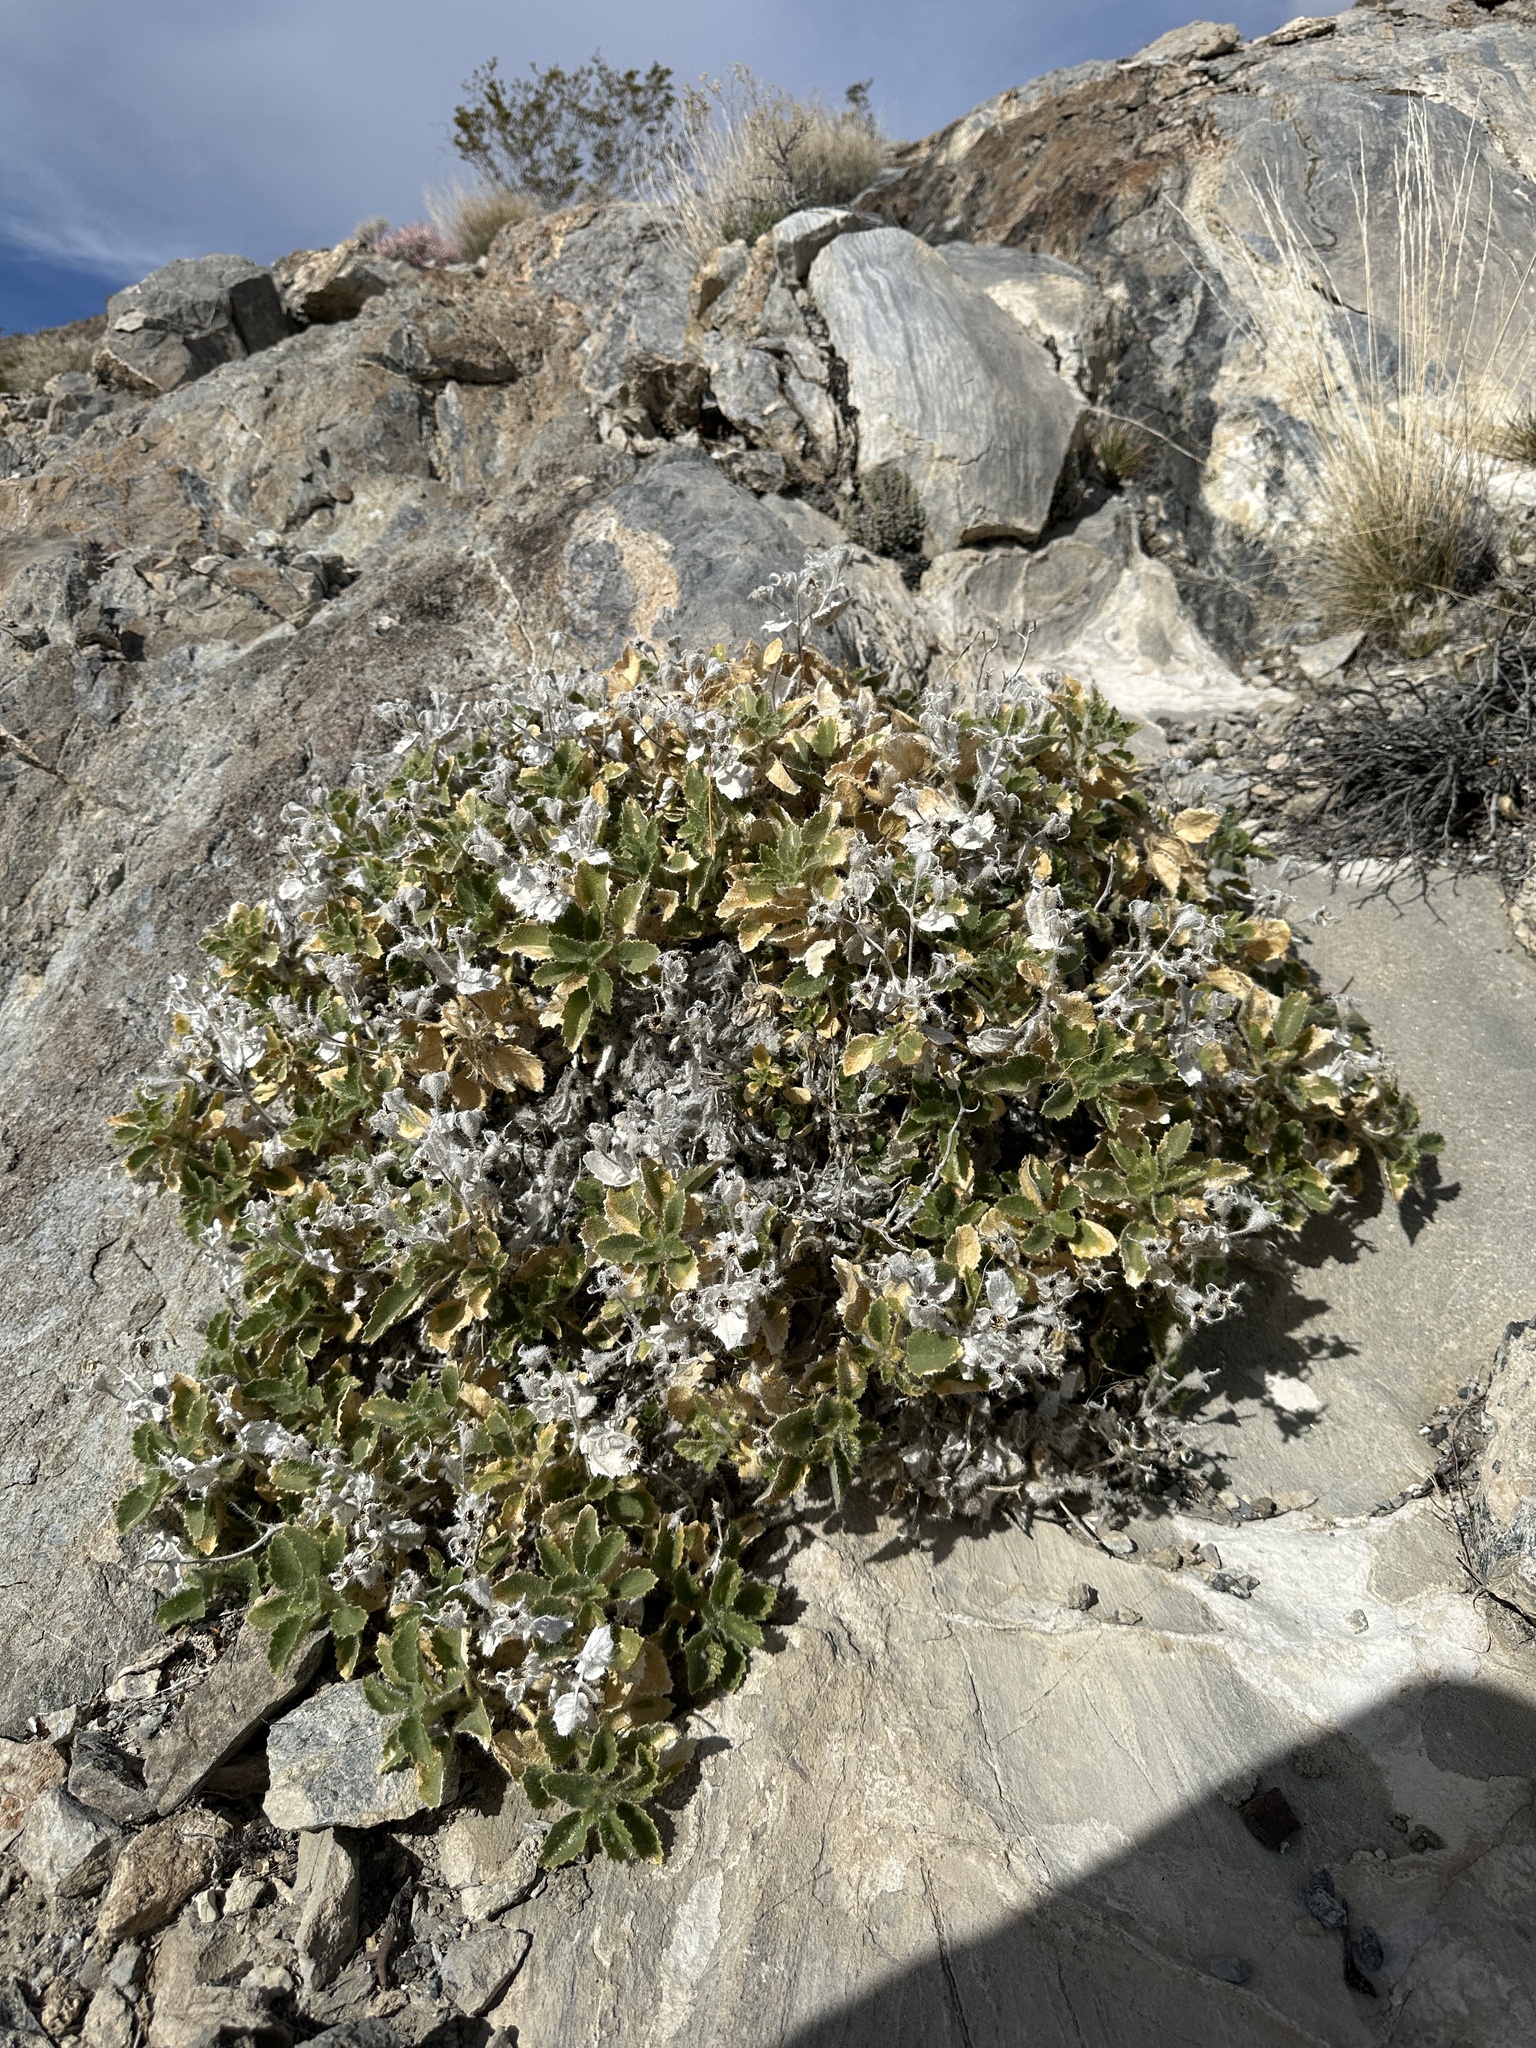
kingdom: Plantae
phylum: Tracheophyta
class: Magnoliopsida
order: Cornales
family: Loasaceae
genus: Eucnide
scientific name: Eucnide urens
